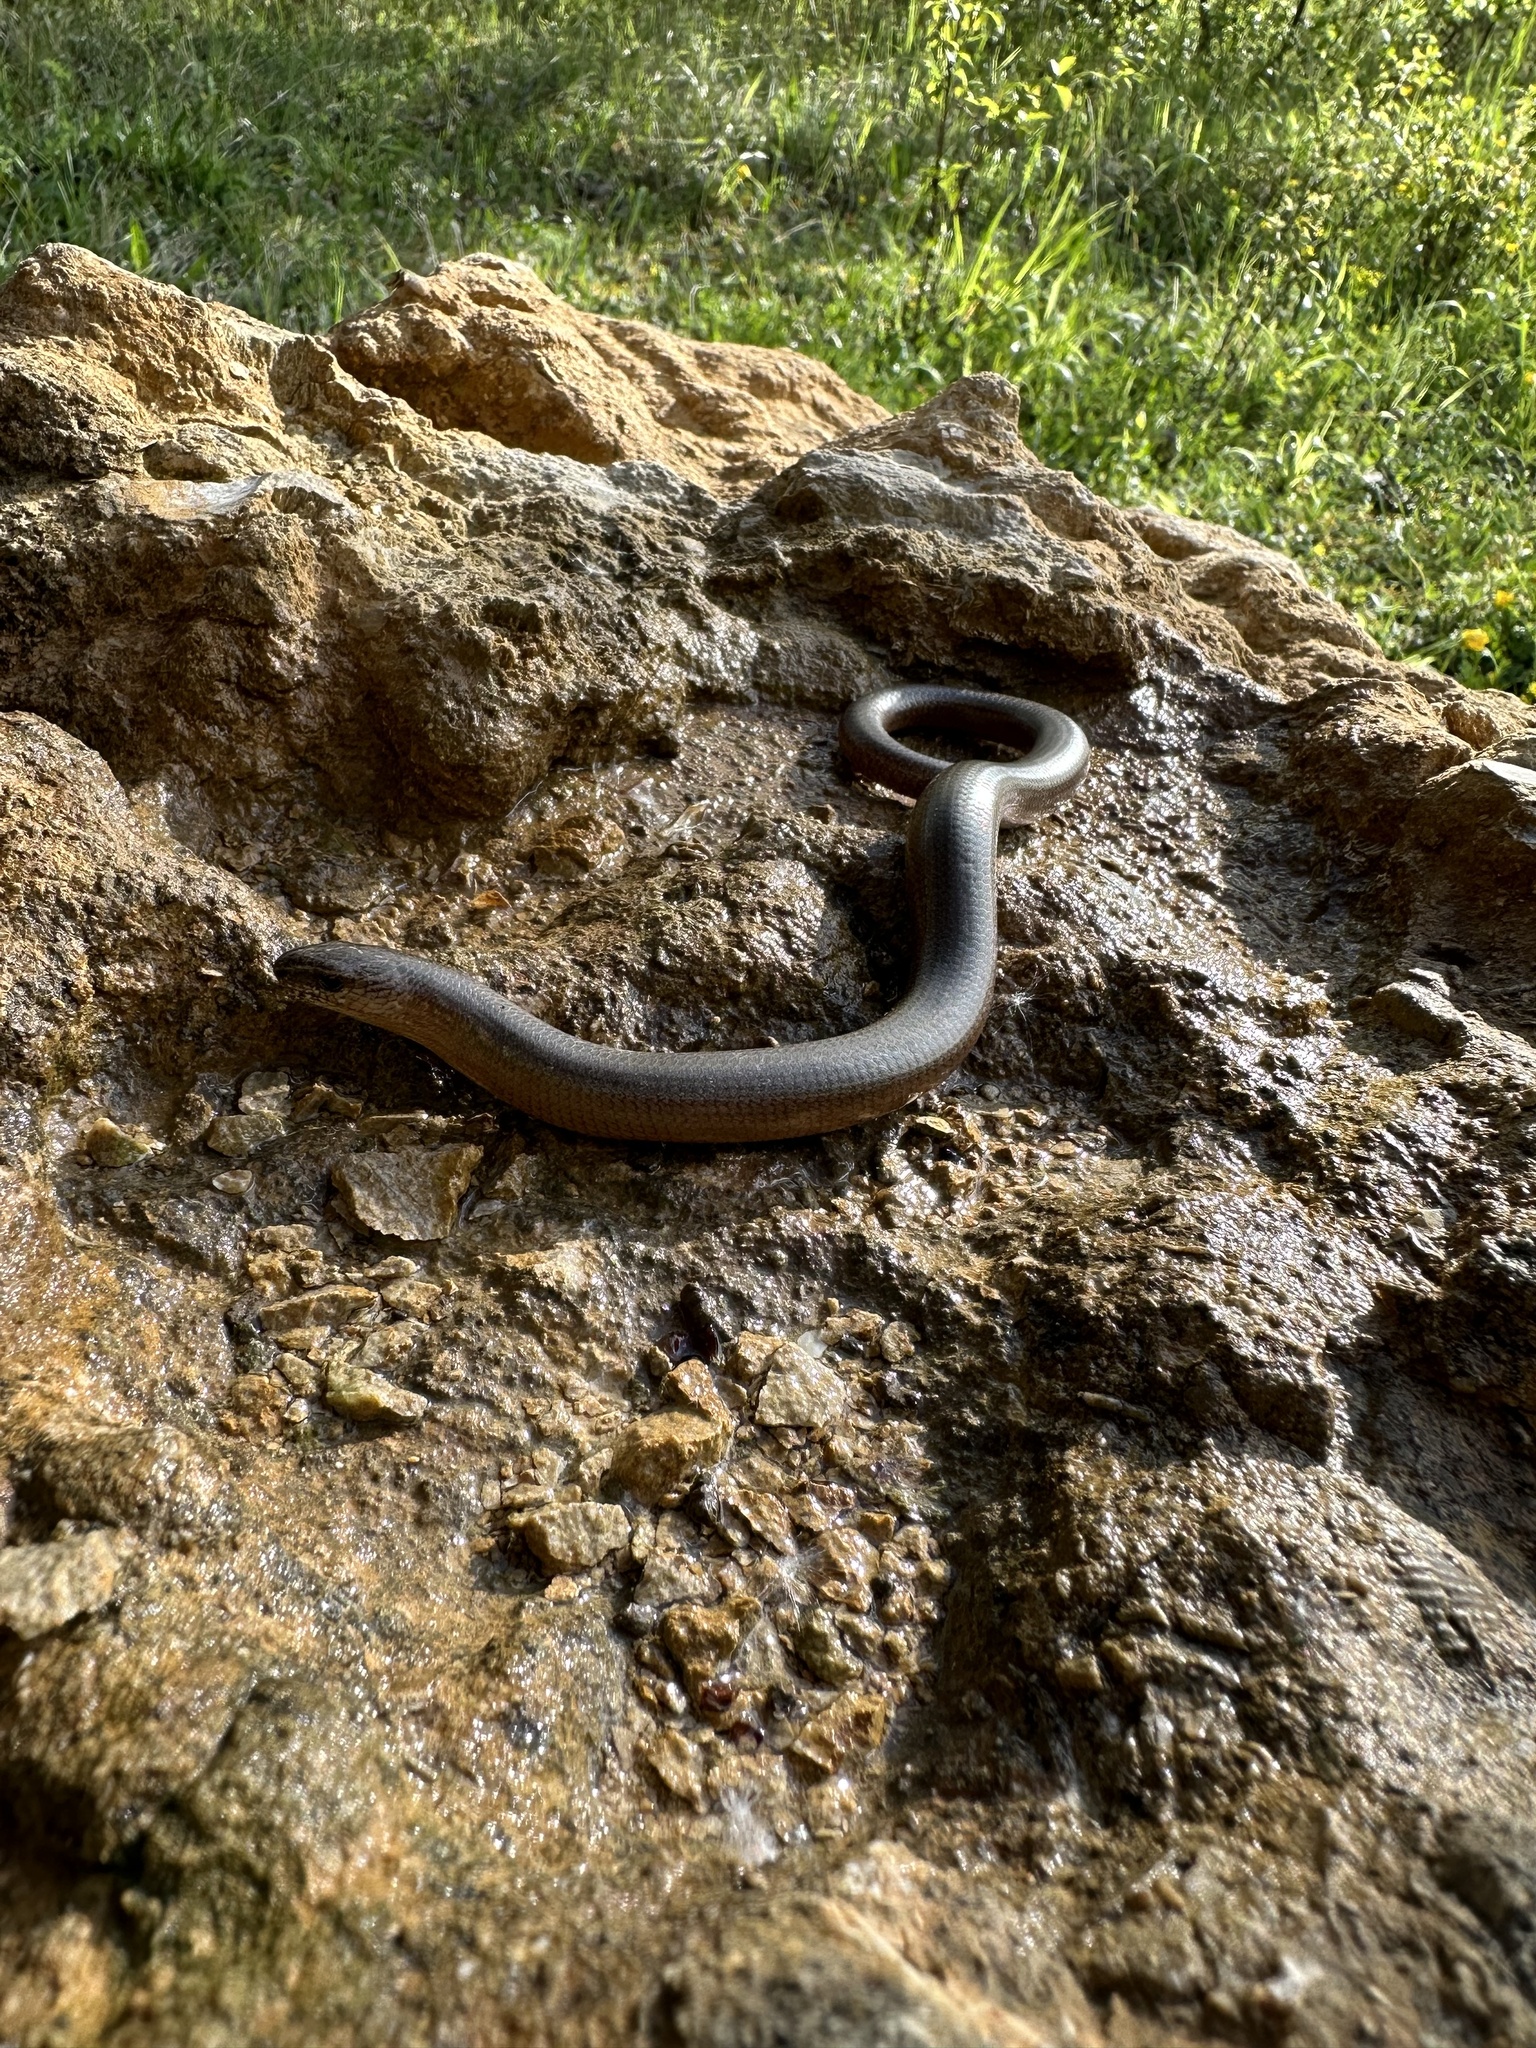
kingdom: Animalia
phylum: Chordata
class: Squamata
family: Anguidae
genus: Anguis
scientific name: Anguis fragilis
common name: Slow worm
